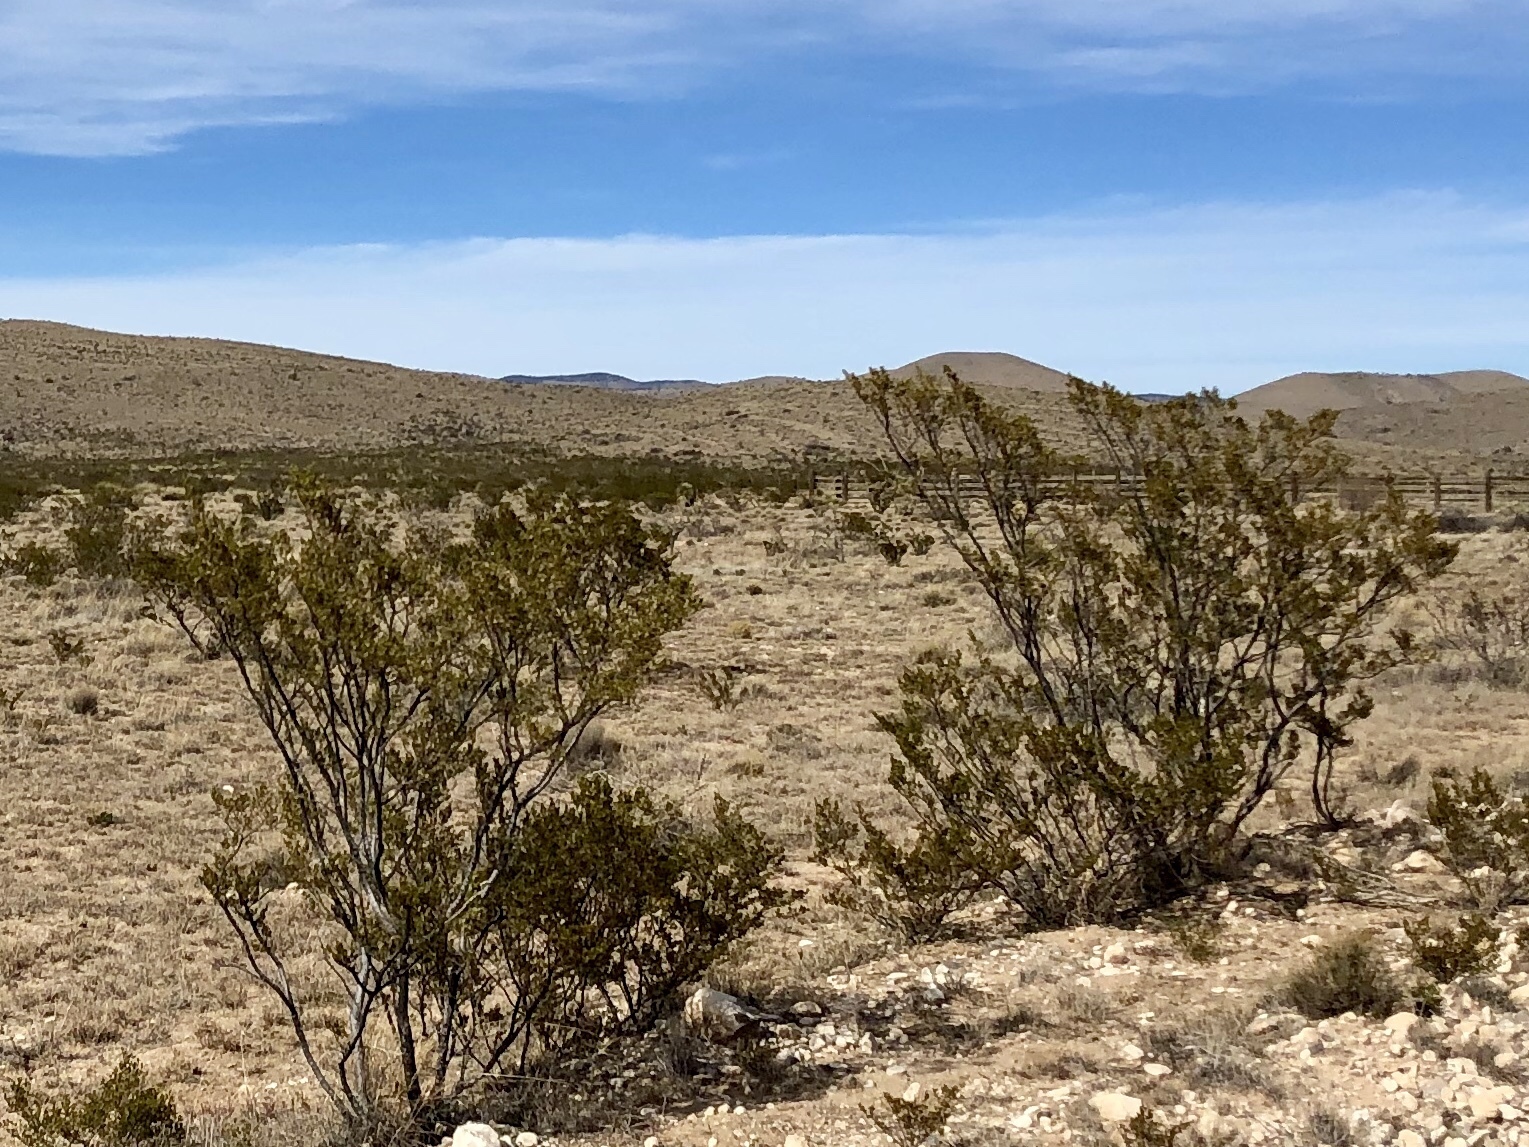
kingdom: Plantae
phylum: Tracheophyta
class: Magnoliopsida
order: Zygophyllales
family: Zygophyllaceae
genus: Larrea
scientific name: Larrea tridentata
